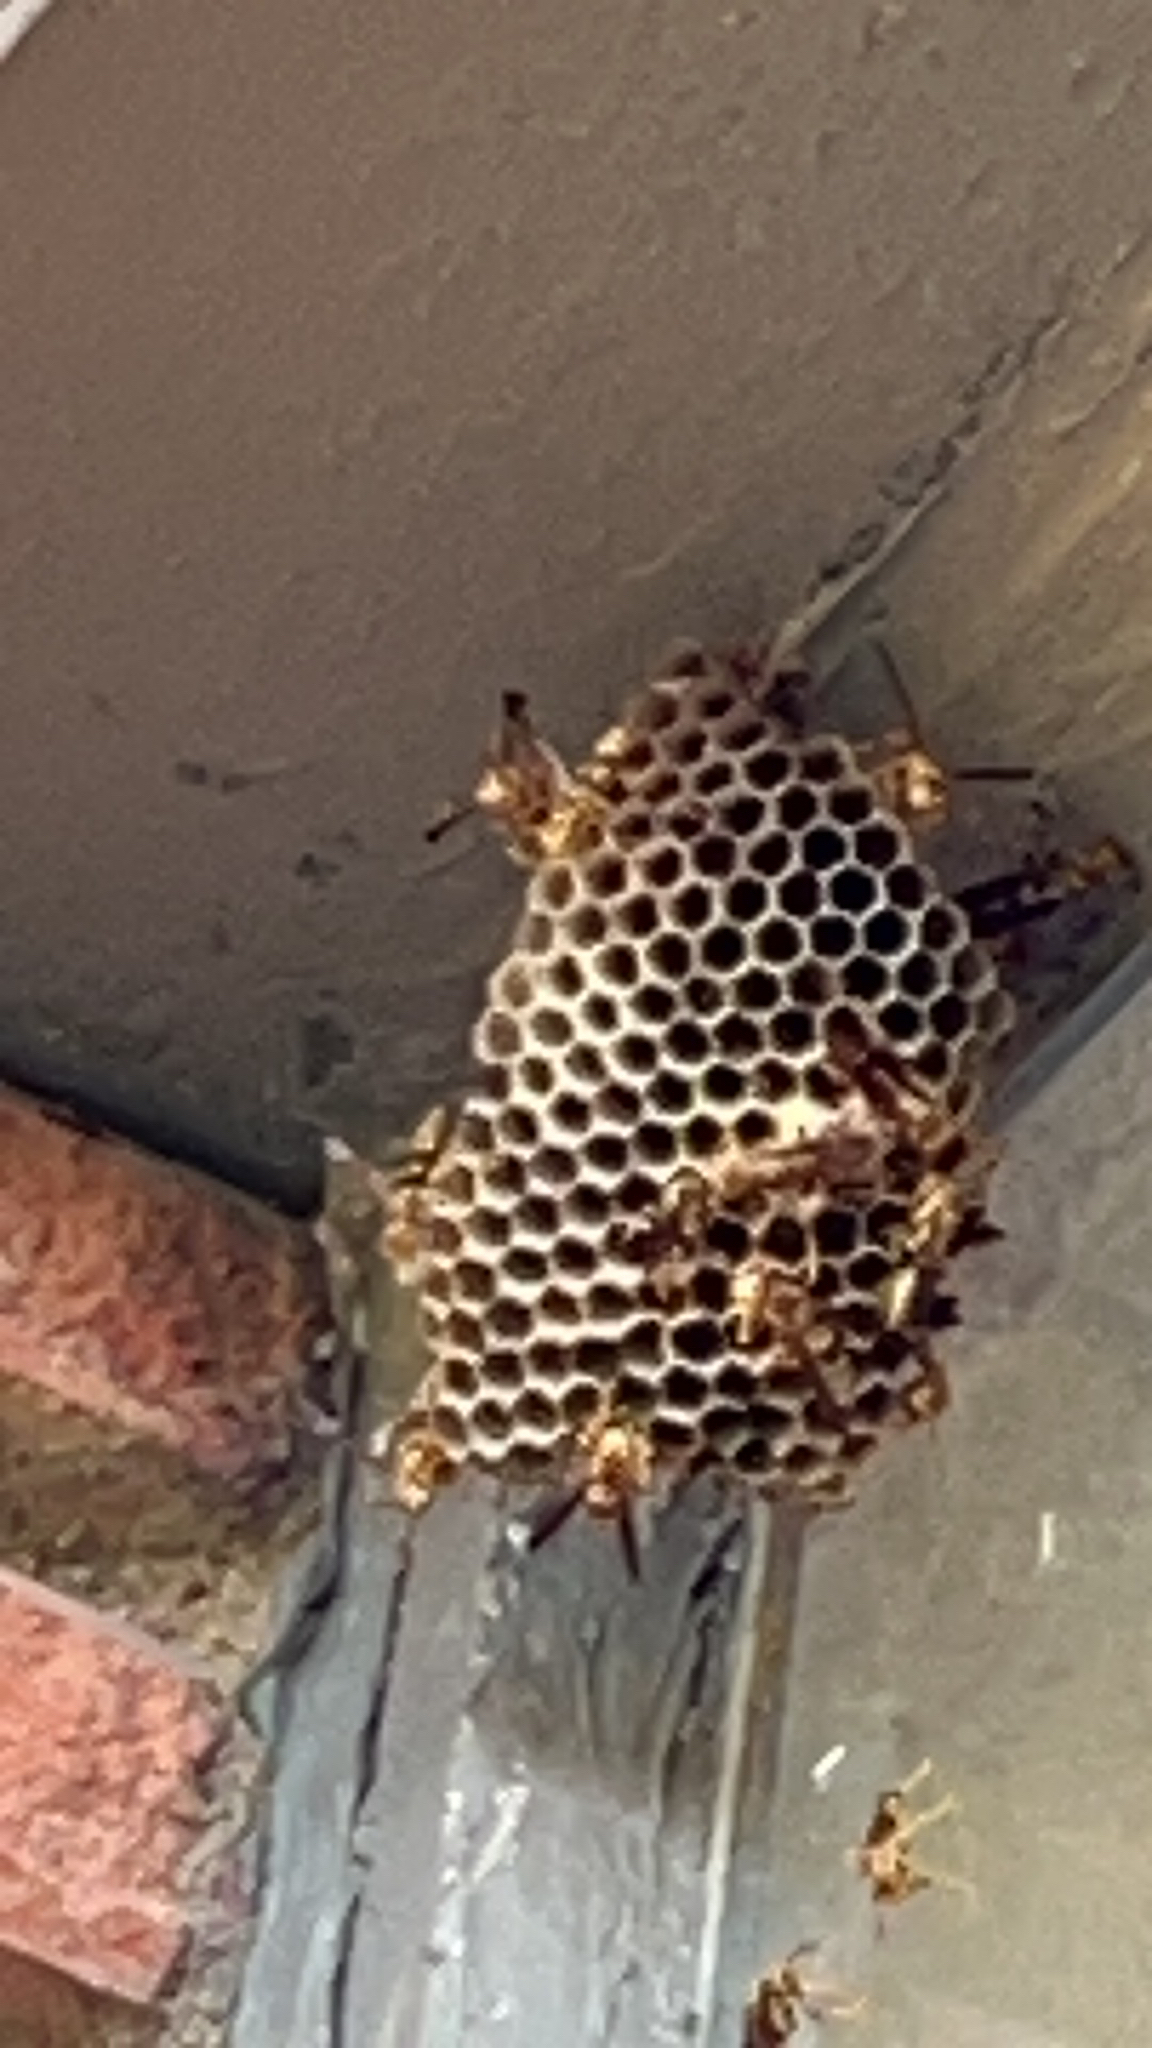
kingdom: Animalia
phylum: Arthropoda
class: Insecta
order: Hymenoptera
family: Eumenidae
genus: Polistes
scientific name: Polistes exclamans
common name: Paper wasp
